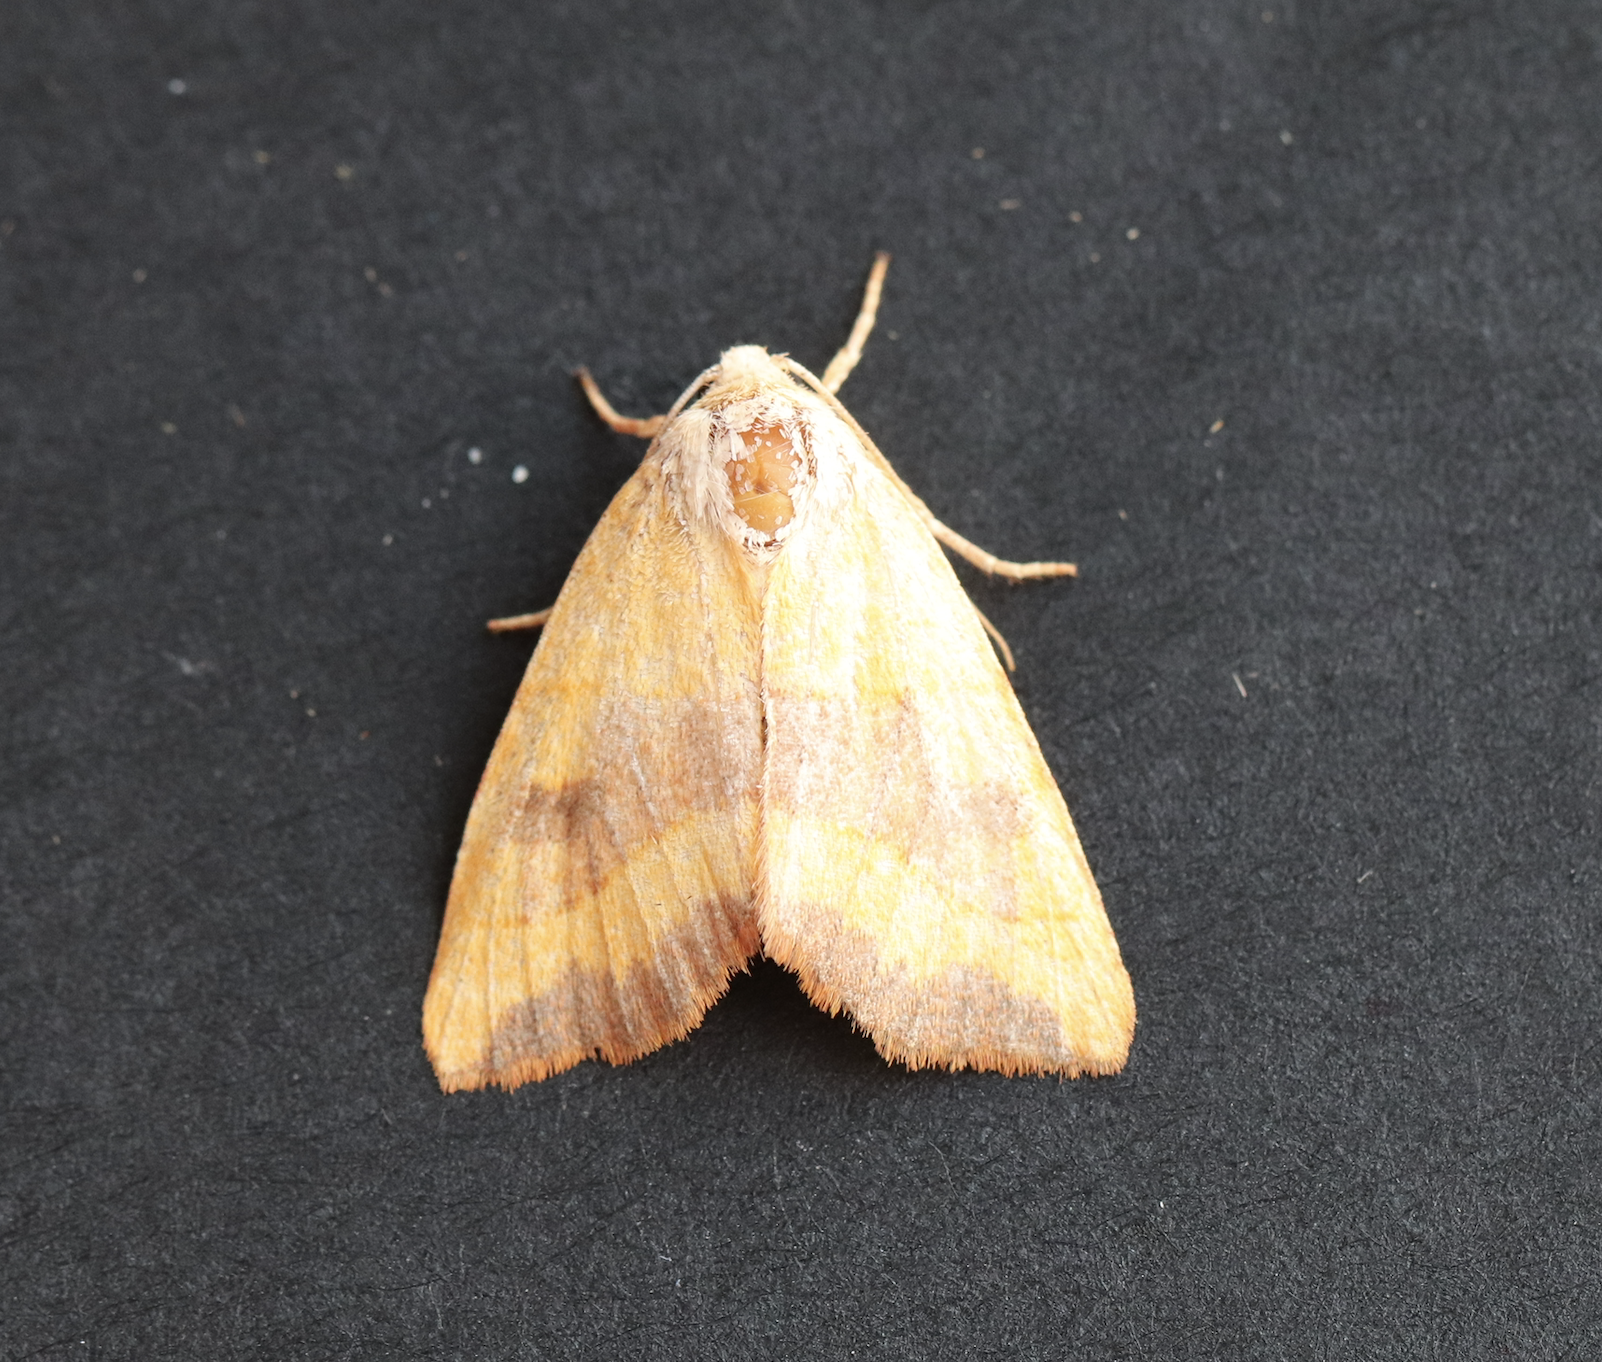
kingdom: Animalia
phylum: Arthropoda
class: Insecta
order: Lepidoptera
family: Noctuidae
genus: Atethmia
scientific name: Atethmia centrago
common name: Centre-barred sallow
